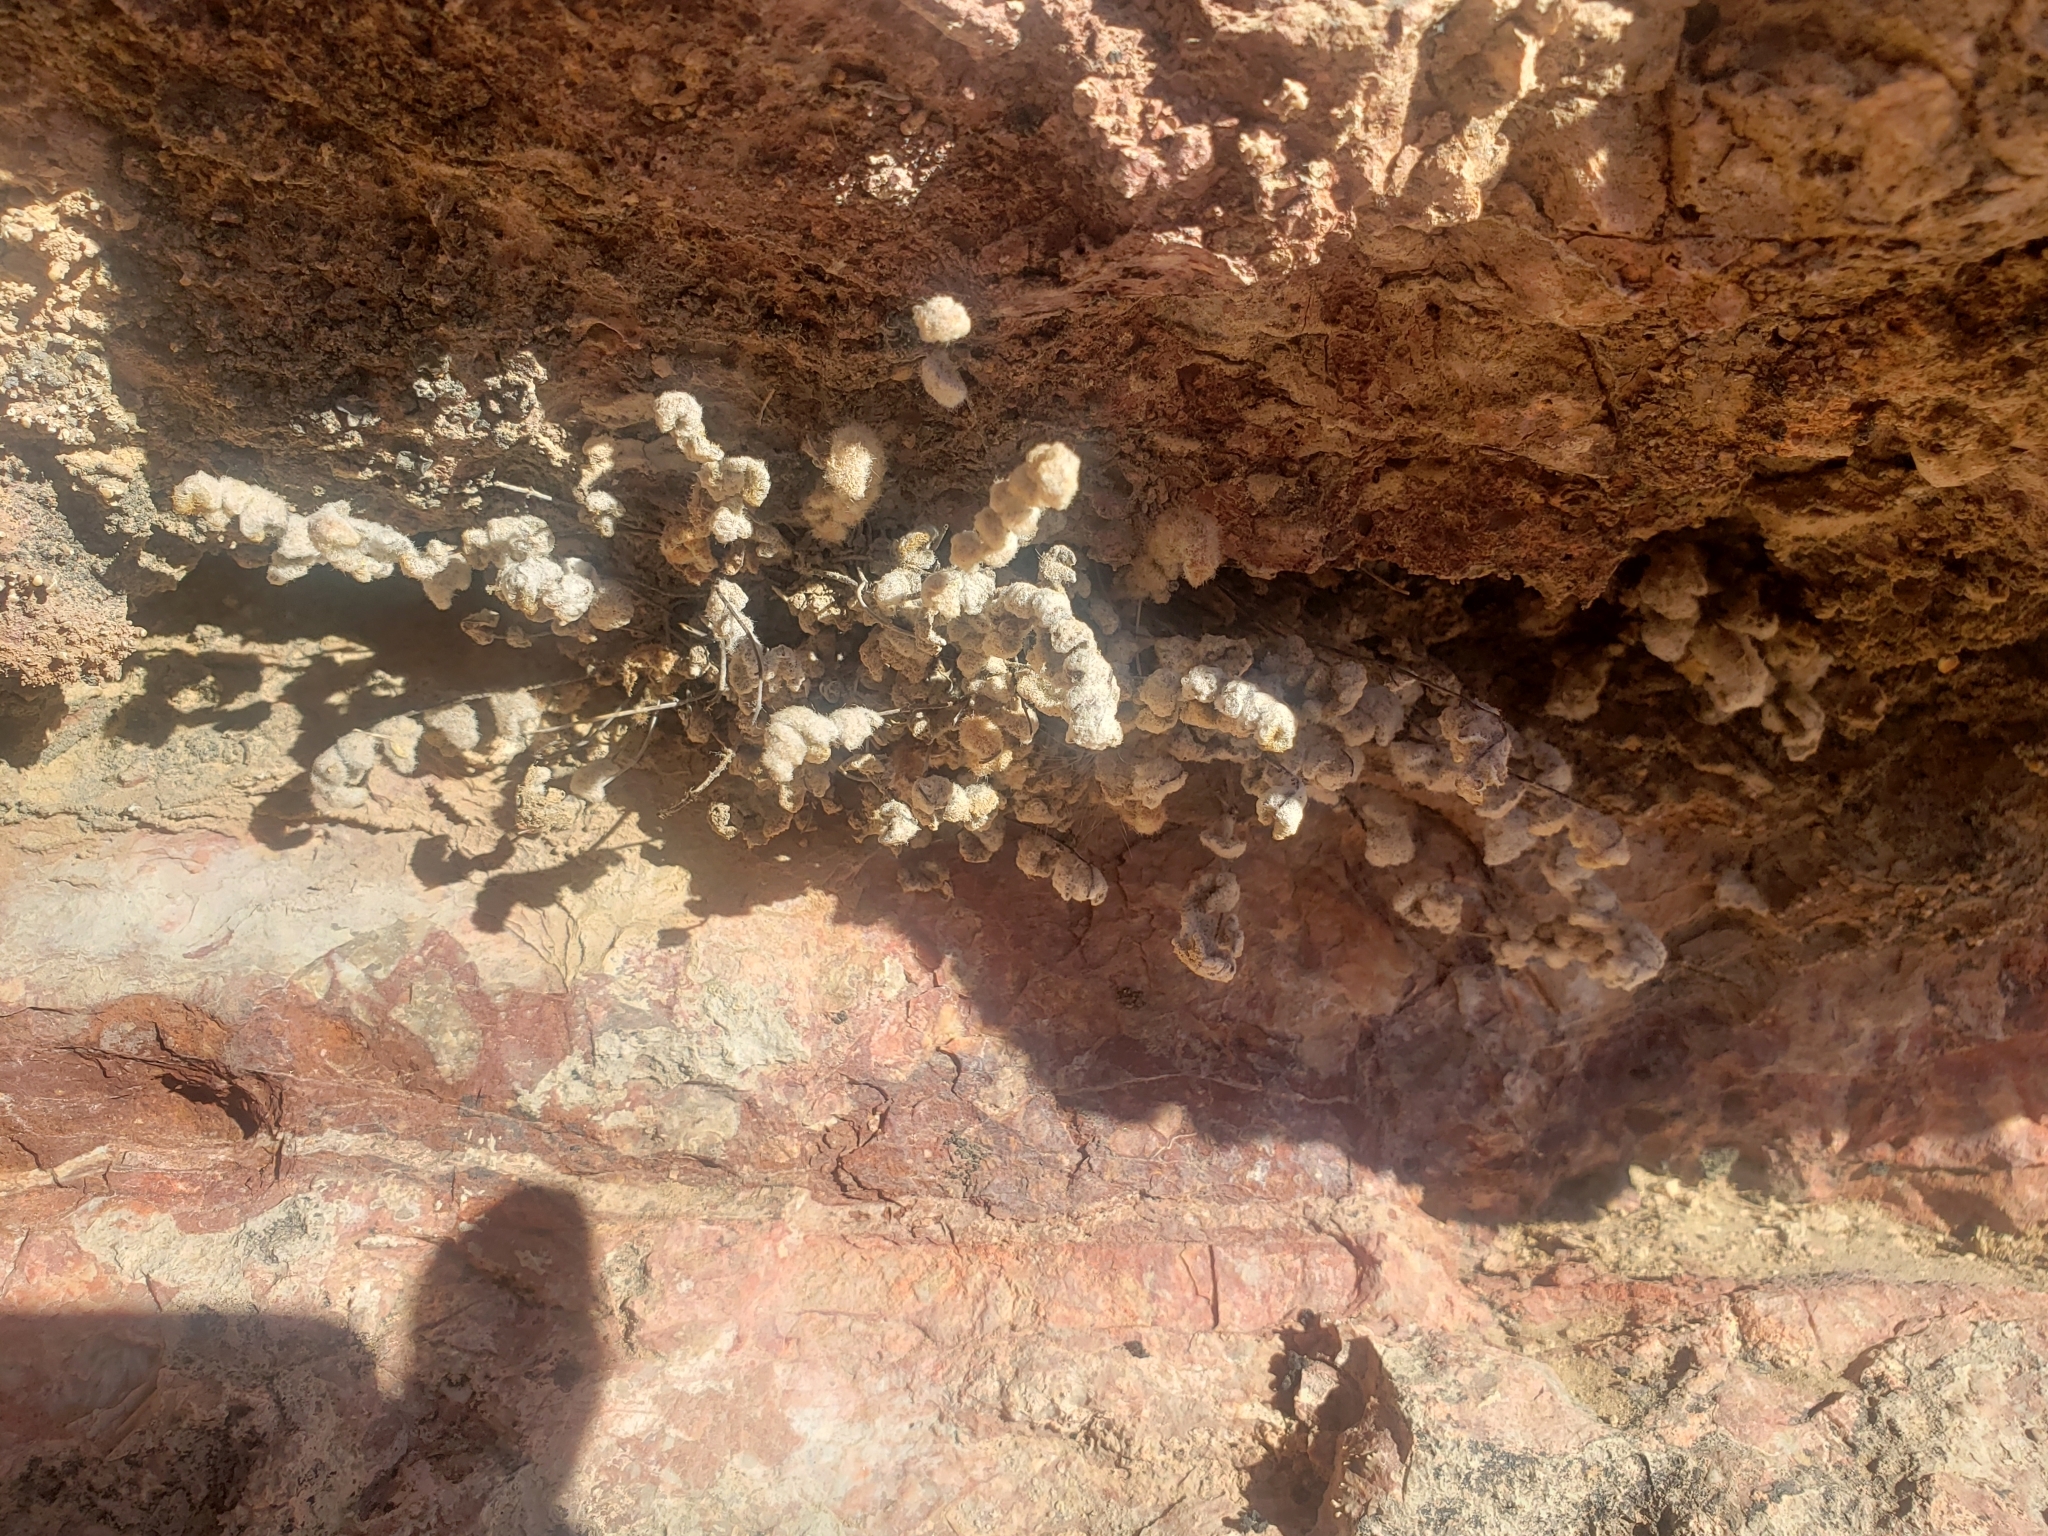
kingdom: Plantae
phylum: Tracheophyta
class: Polypodiopsida
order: Polypodiales
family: Pteridaceae
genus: Myriopteris
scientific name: Myriopteris parryi
